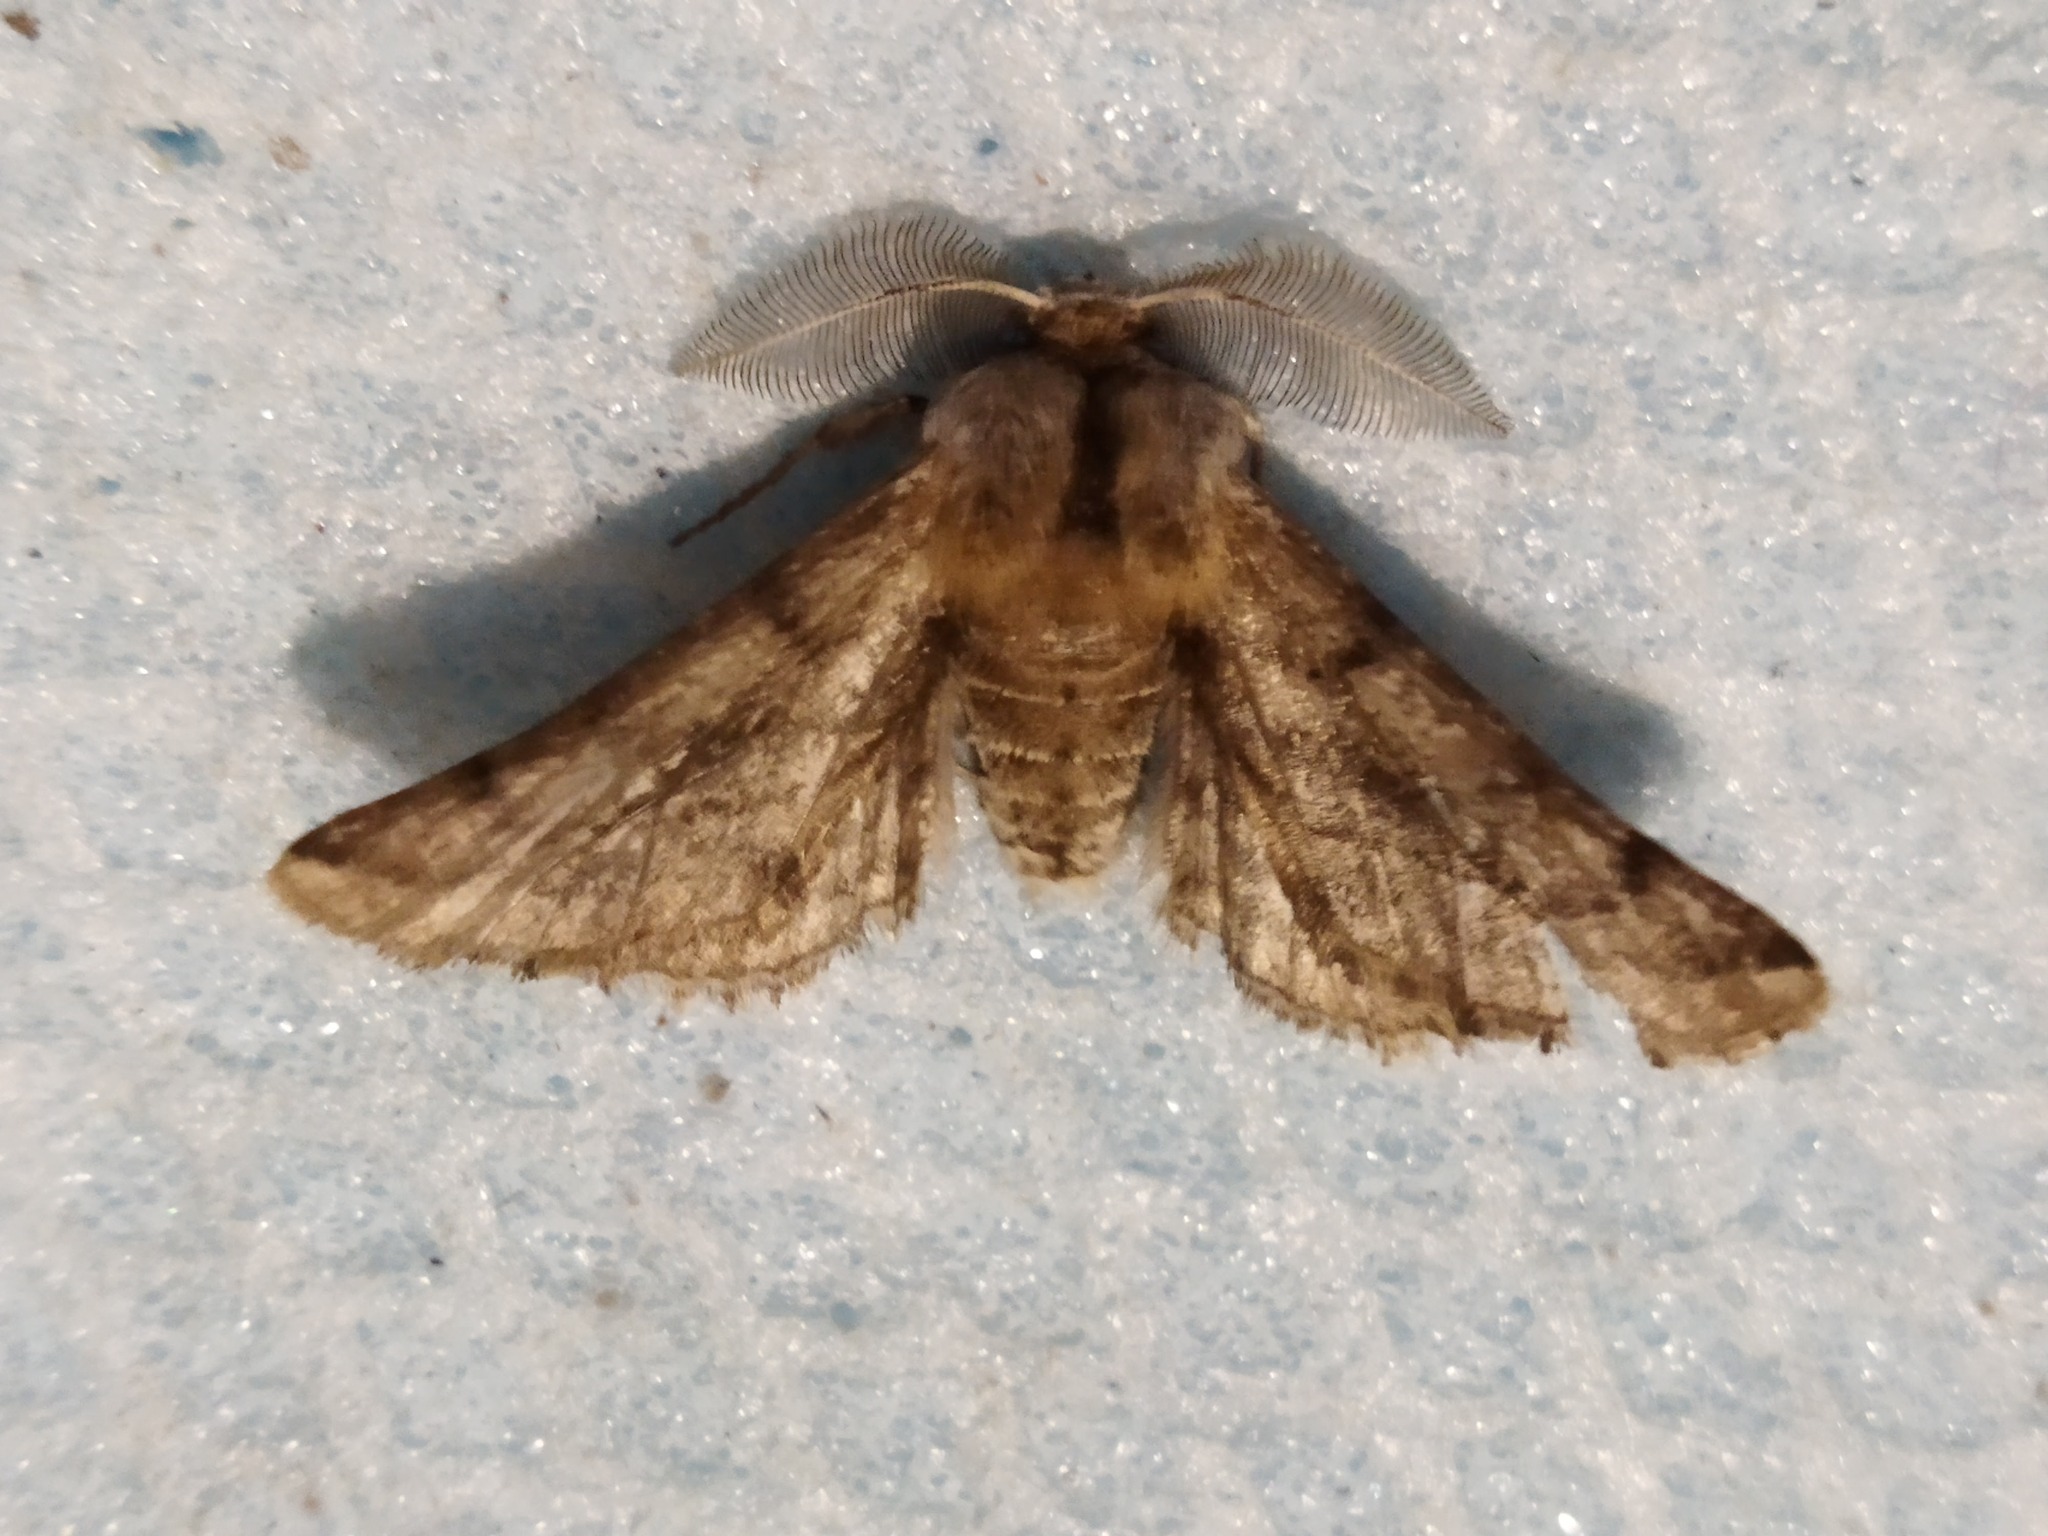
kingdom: Animalia
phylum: Arthropoda
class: Insecta
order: Lepidoptera
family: Geometridae
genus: Apochima
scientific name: Apochima flabellaria
